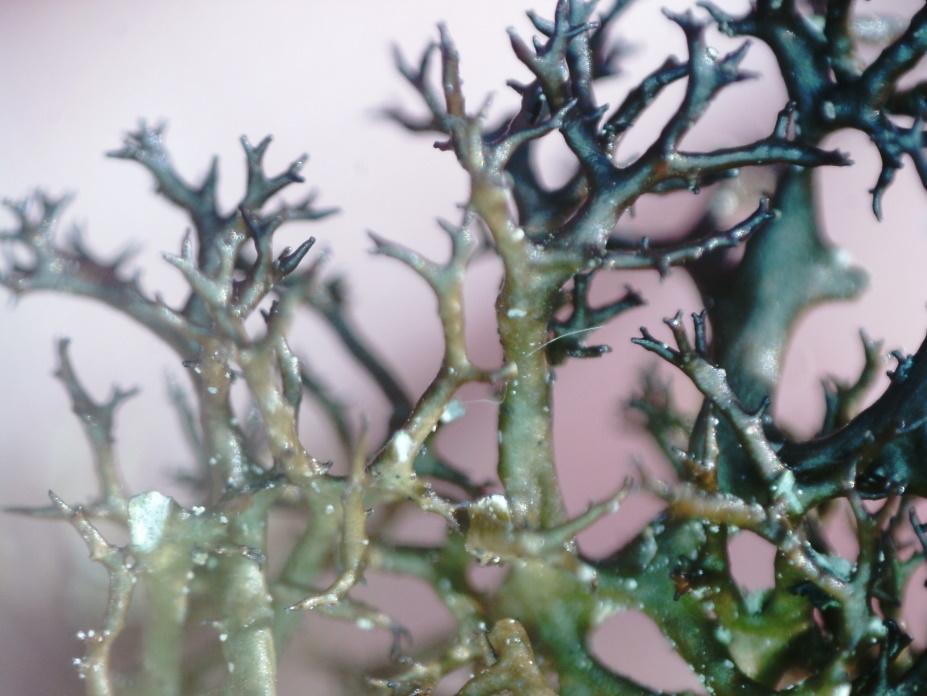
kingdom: Fungi
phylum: Ascomycota
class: Lecanoromycetes
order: Lecanorales
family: Parmeliaceae
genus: Cetraria
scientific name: Cetraria muricata
